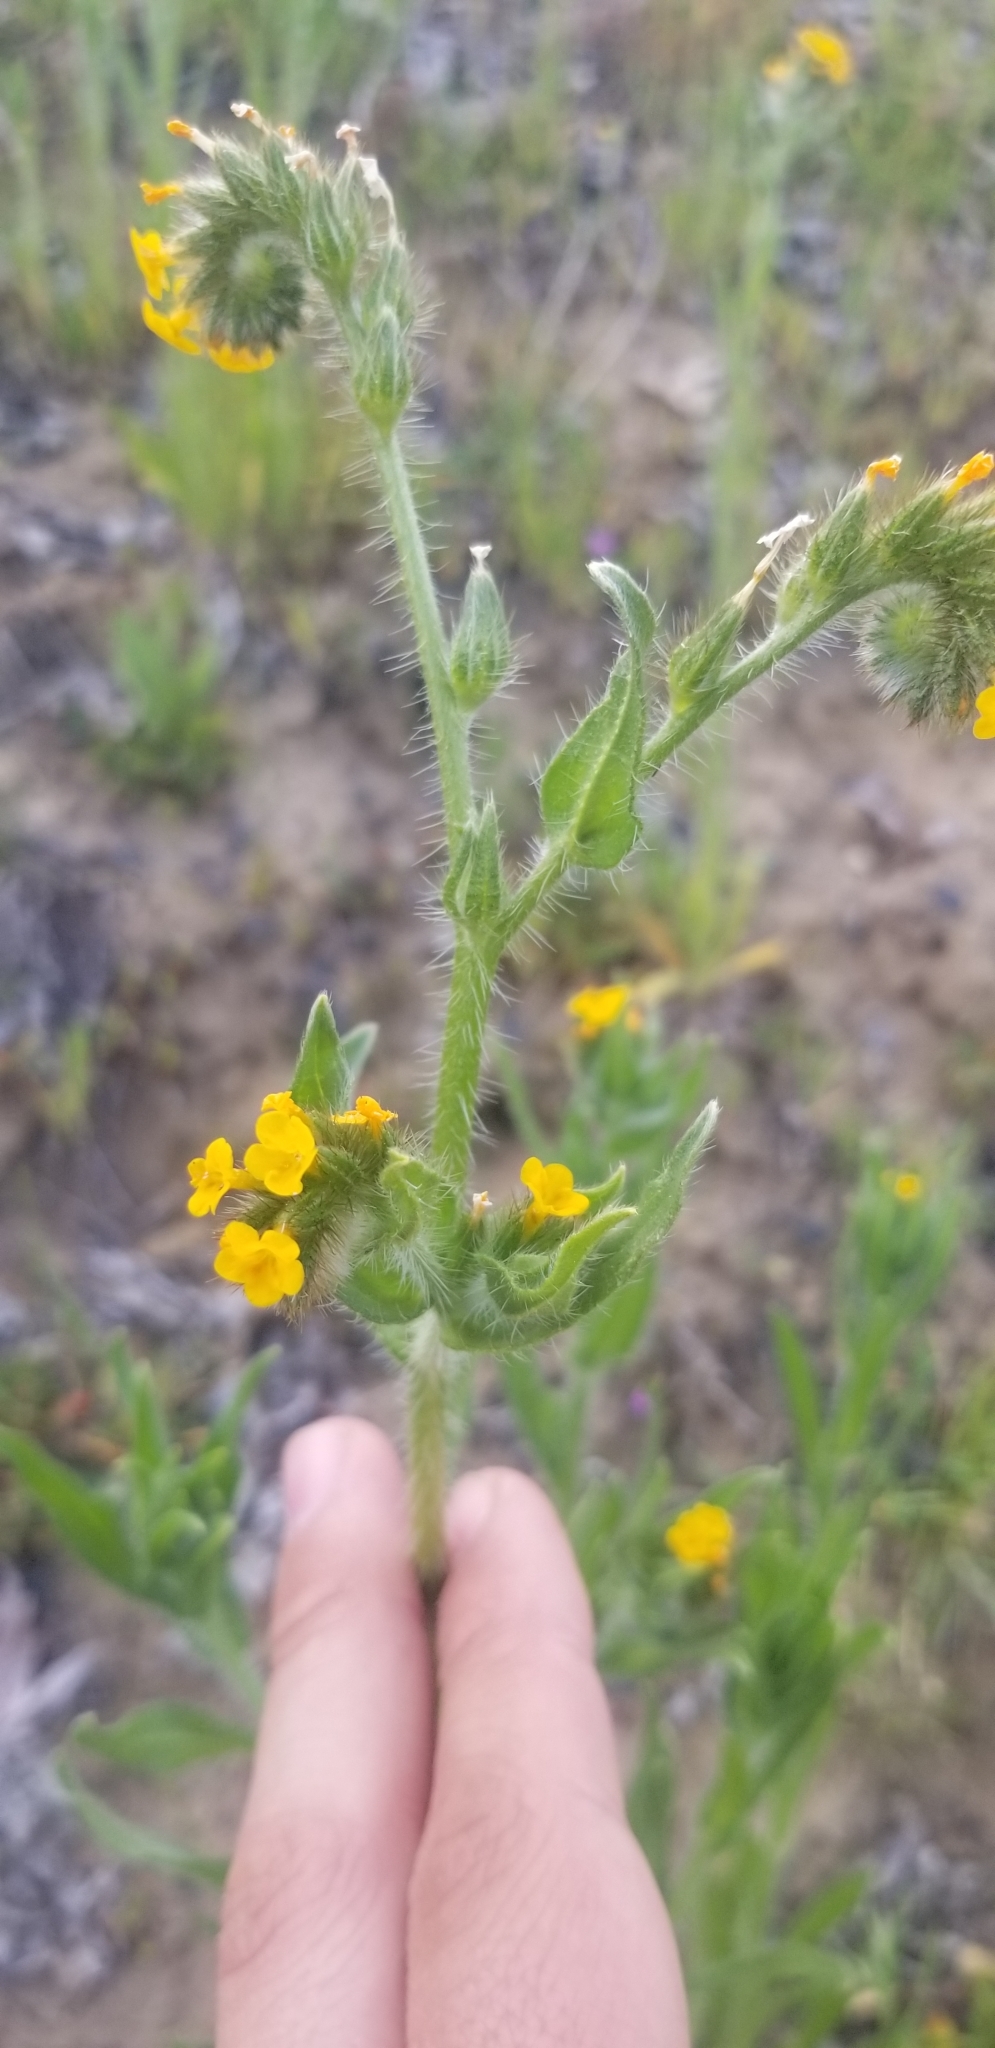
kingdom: Plantae
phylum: Tracheophyta
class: Magnoliopsida
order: Boraginales
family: Boraginaceae
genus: Amsinckia
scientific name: Amsinckia menziesii
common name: Menzies' fiddleneck
